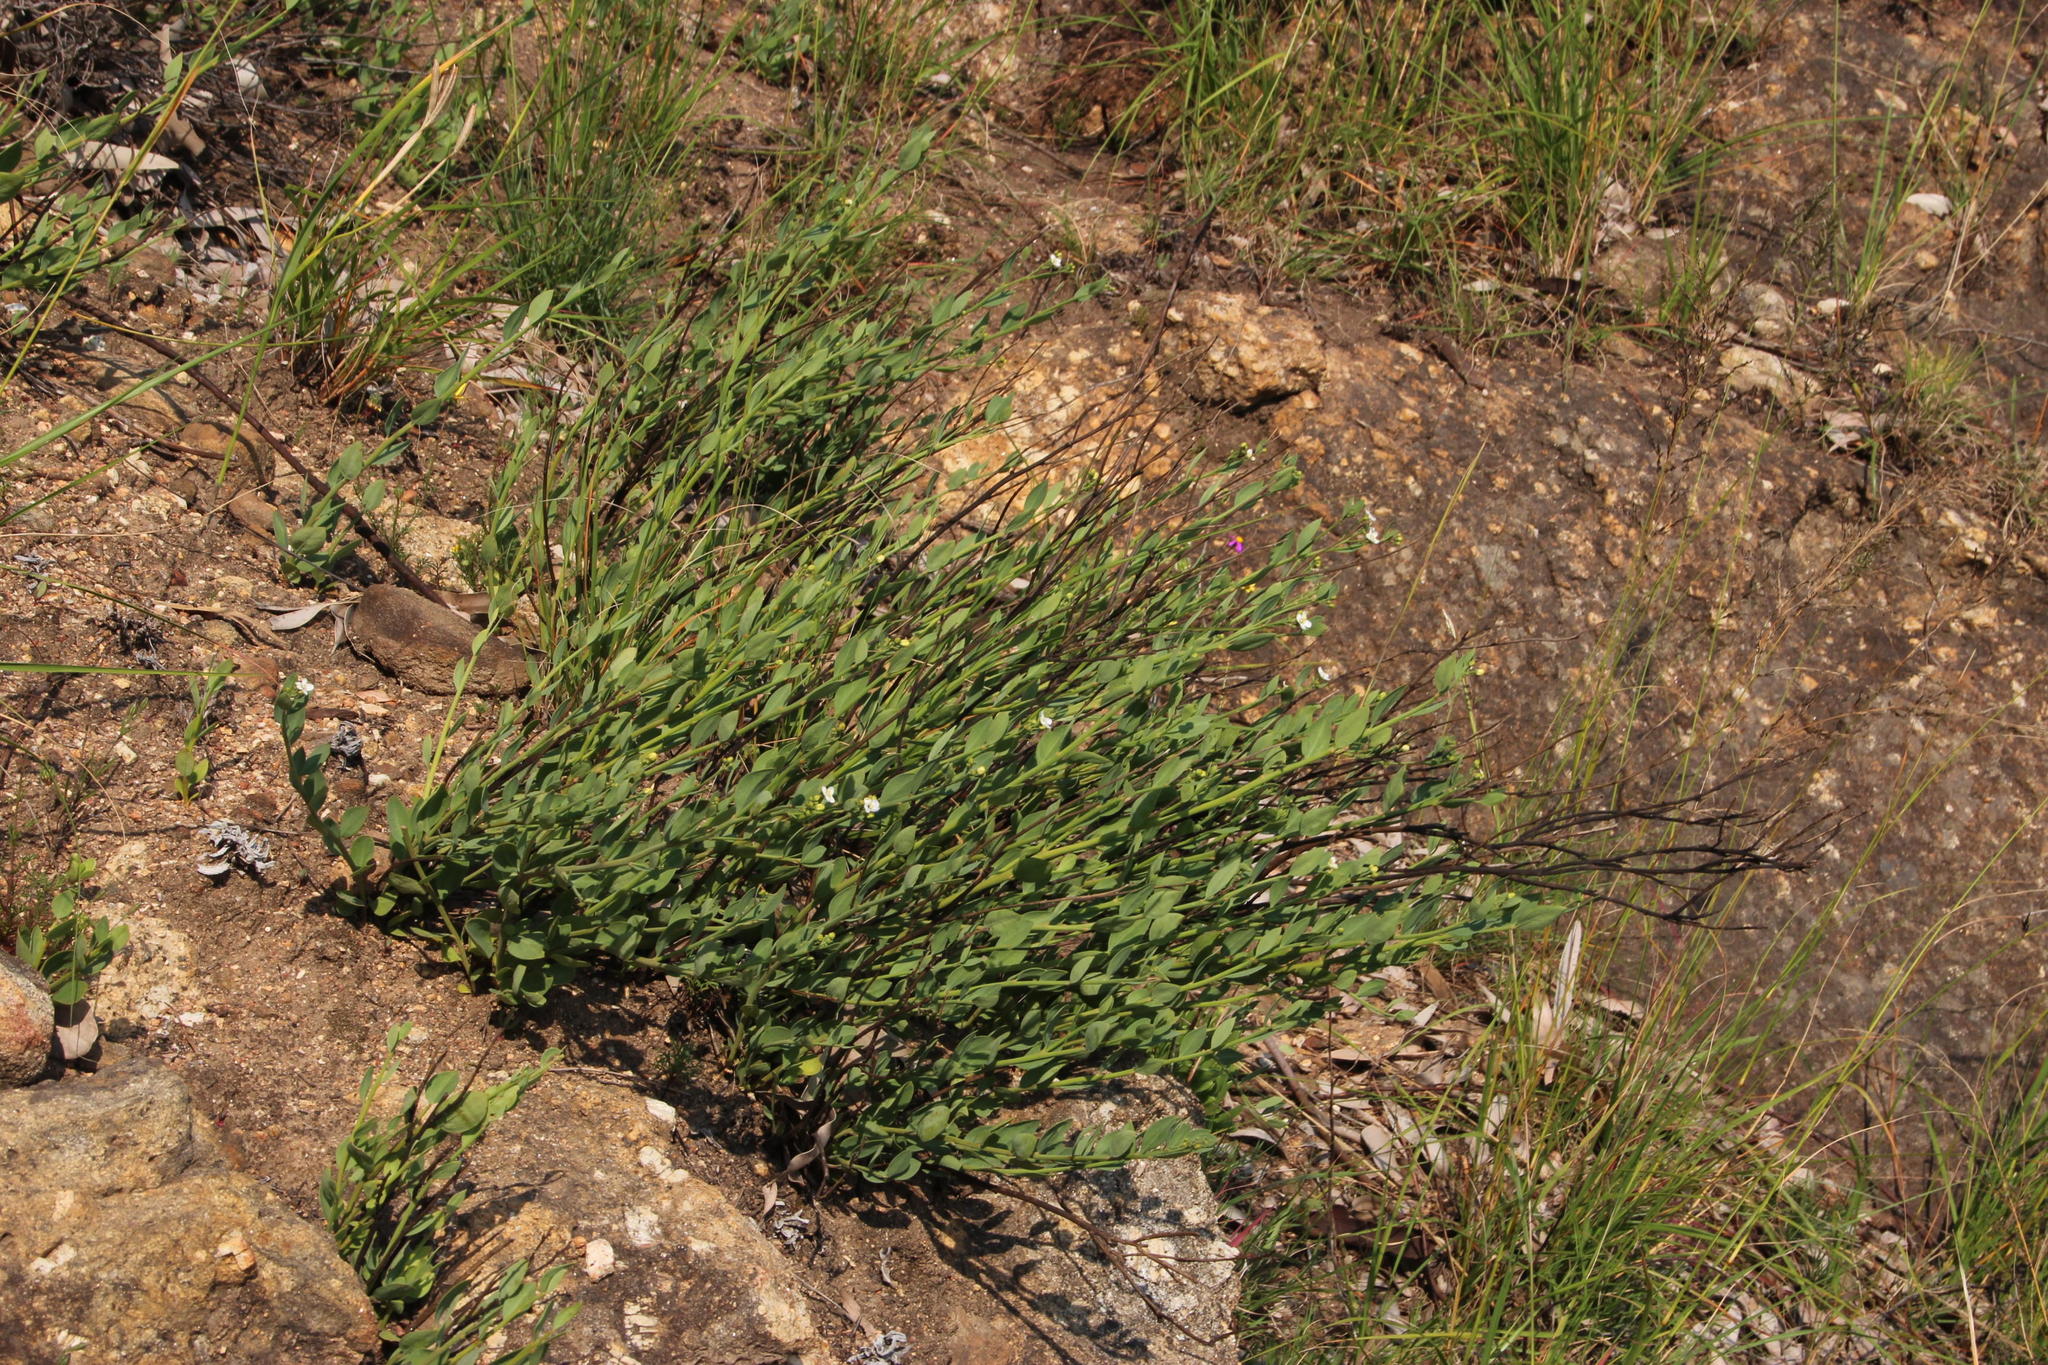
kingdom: Plantae
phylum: Tracheophyta
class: Magnoliopsida
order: Solanales
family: Montiniaceae
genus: Montinia
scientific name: Montinia caryophyllacea
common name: Wild clove-bush
